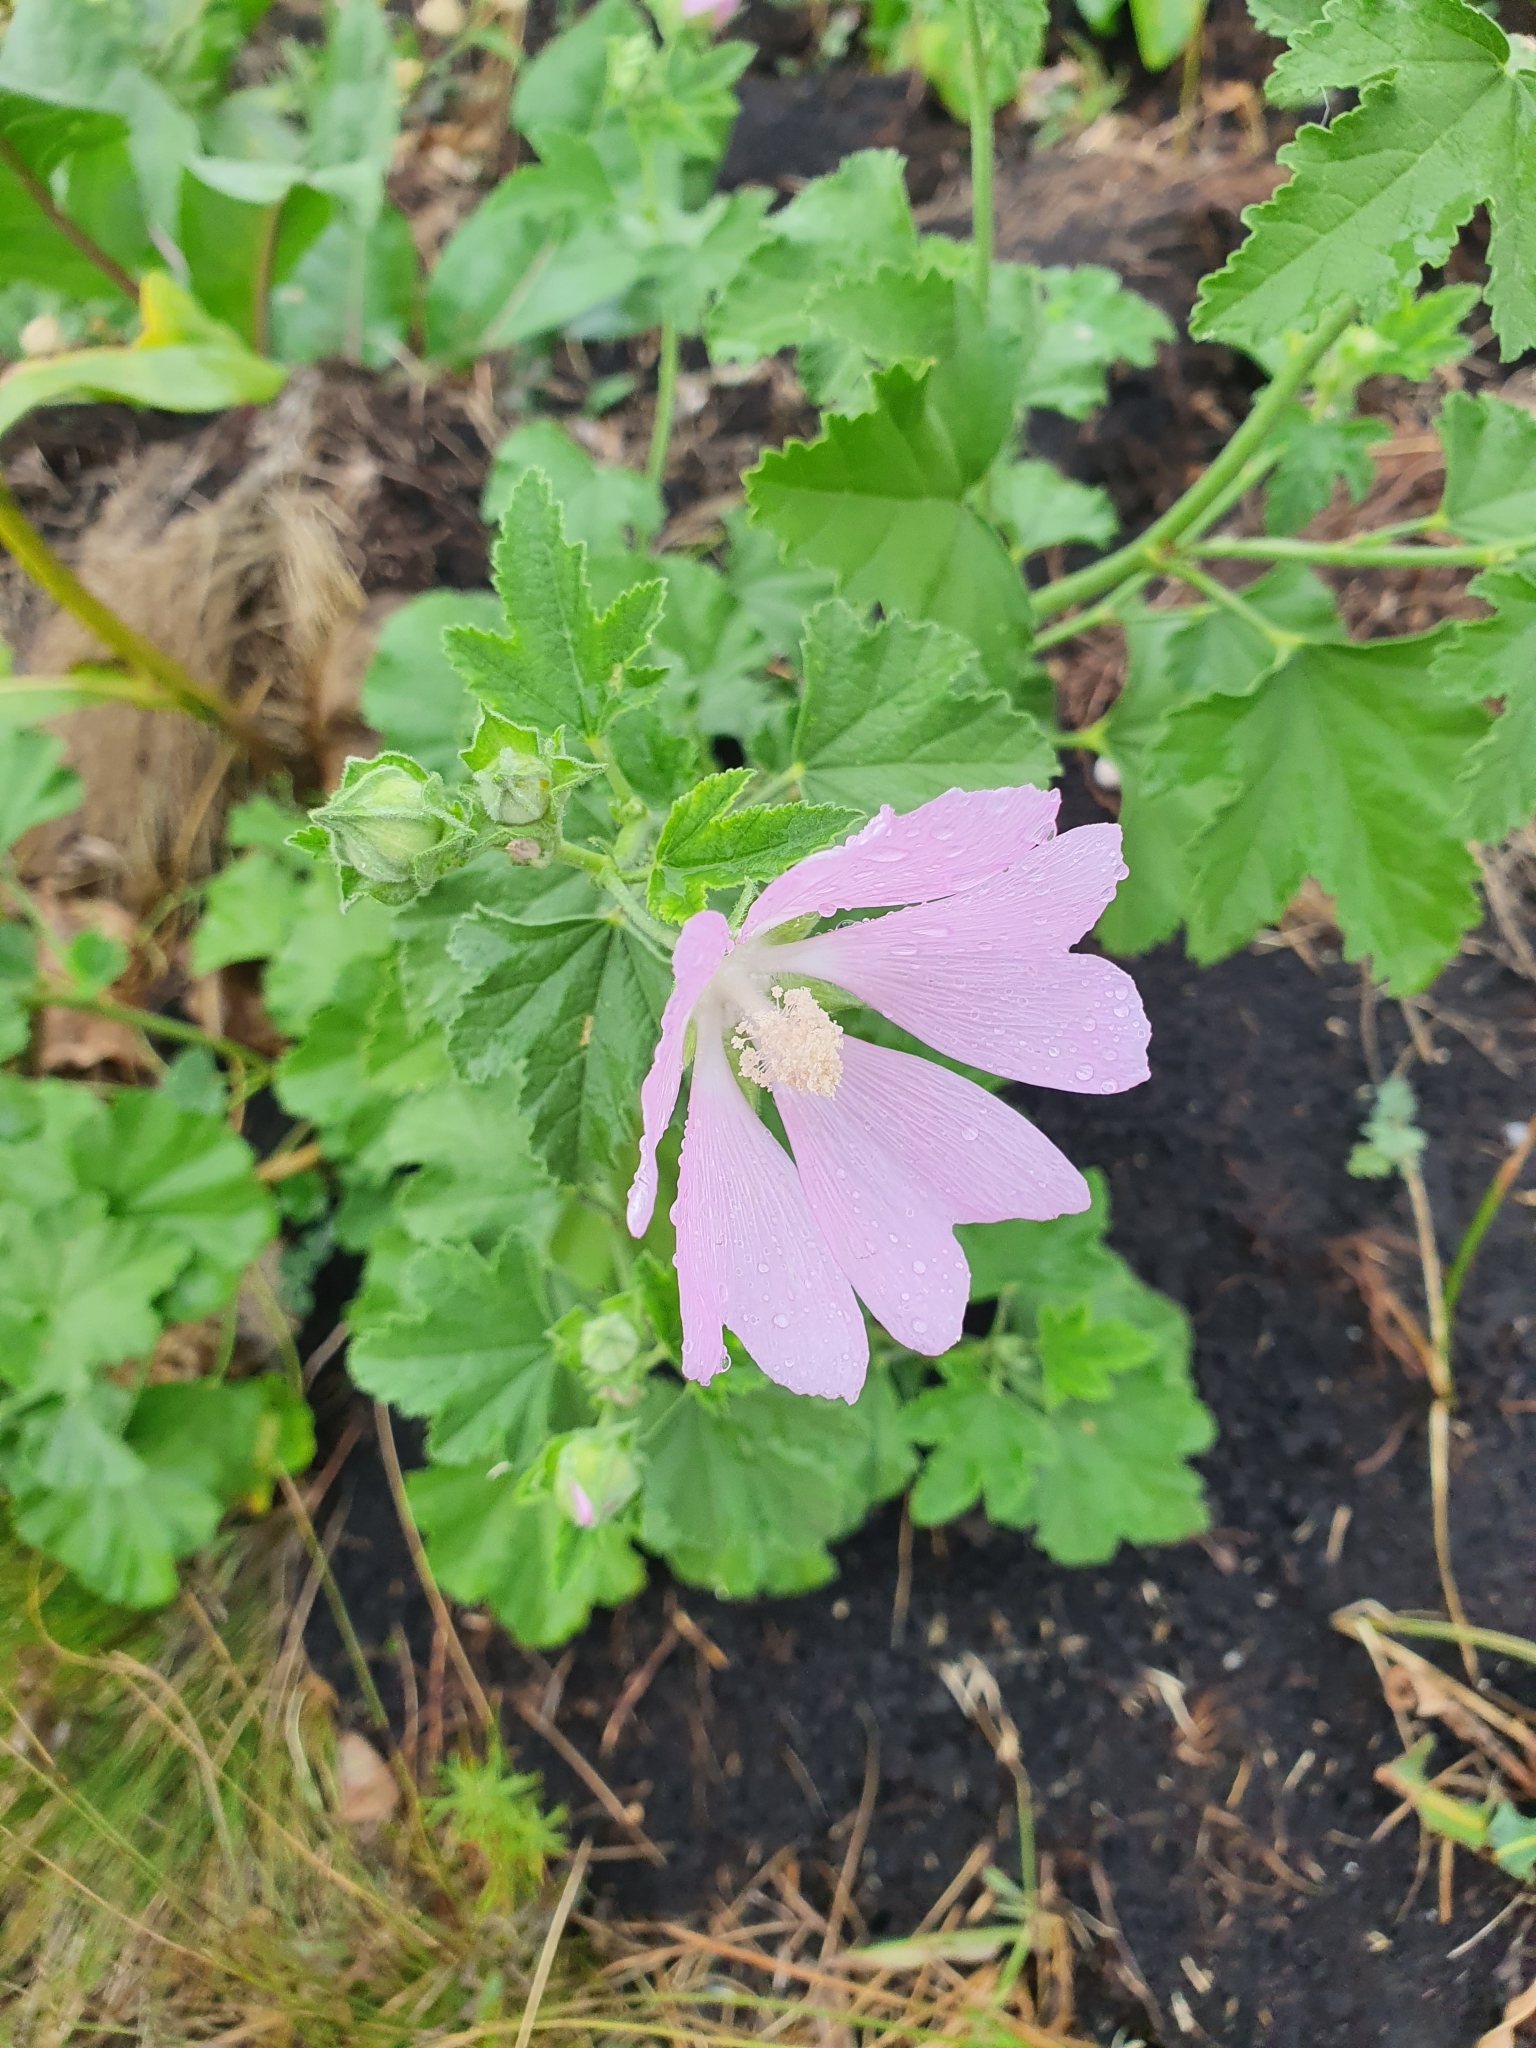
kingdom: Plantae
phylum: Tracheophyta
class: Magnoliopsida
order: Malvales
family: Malvaceae
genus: Malva
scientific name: Malva thuringiaca
